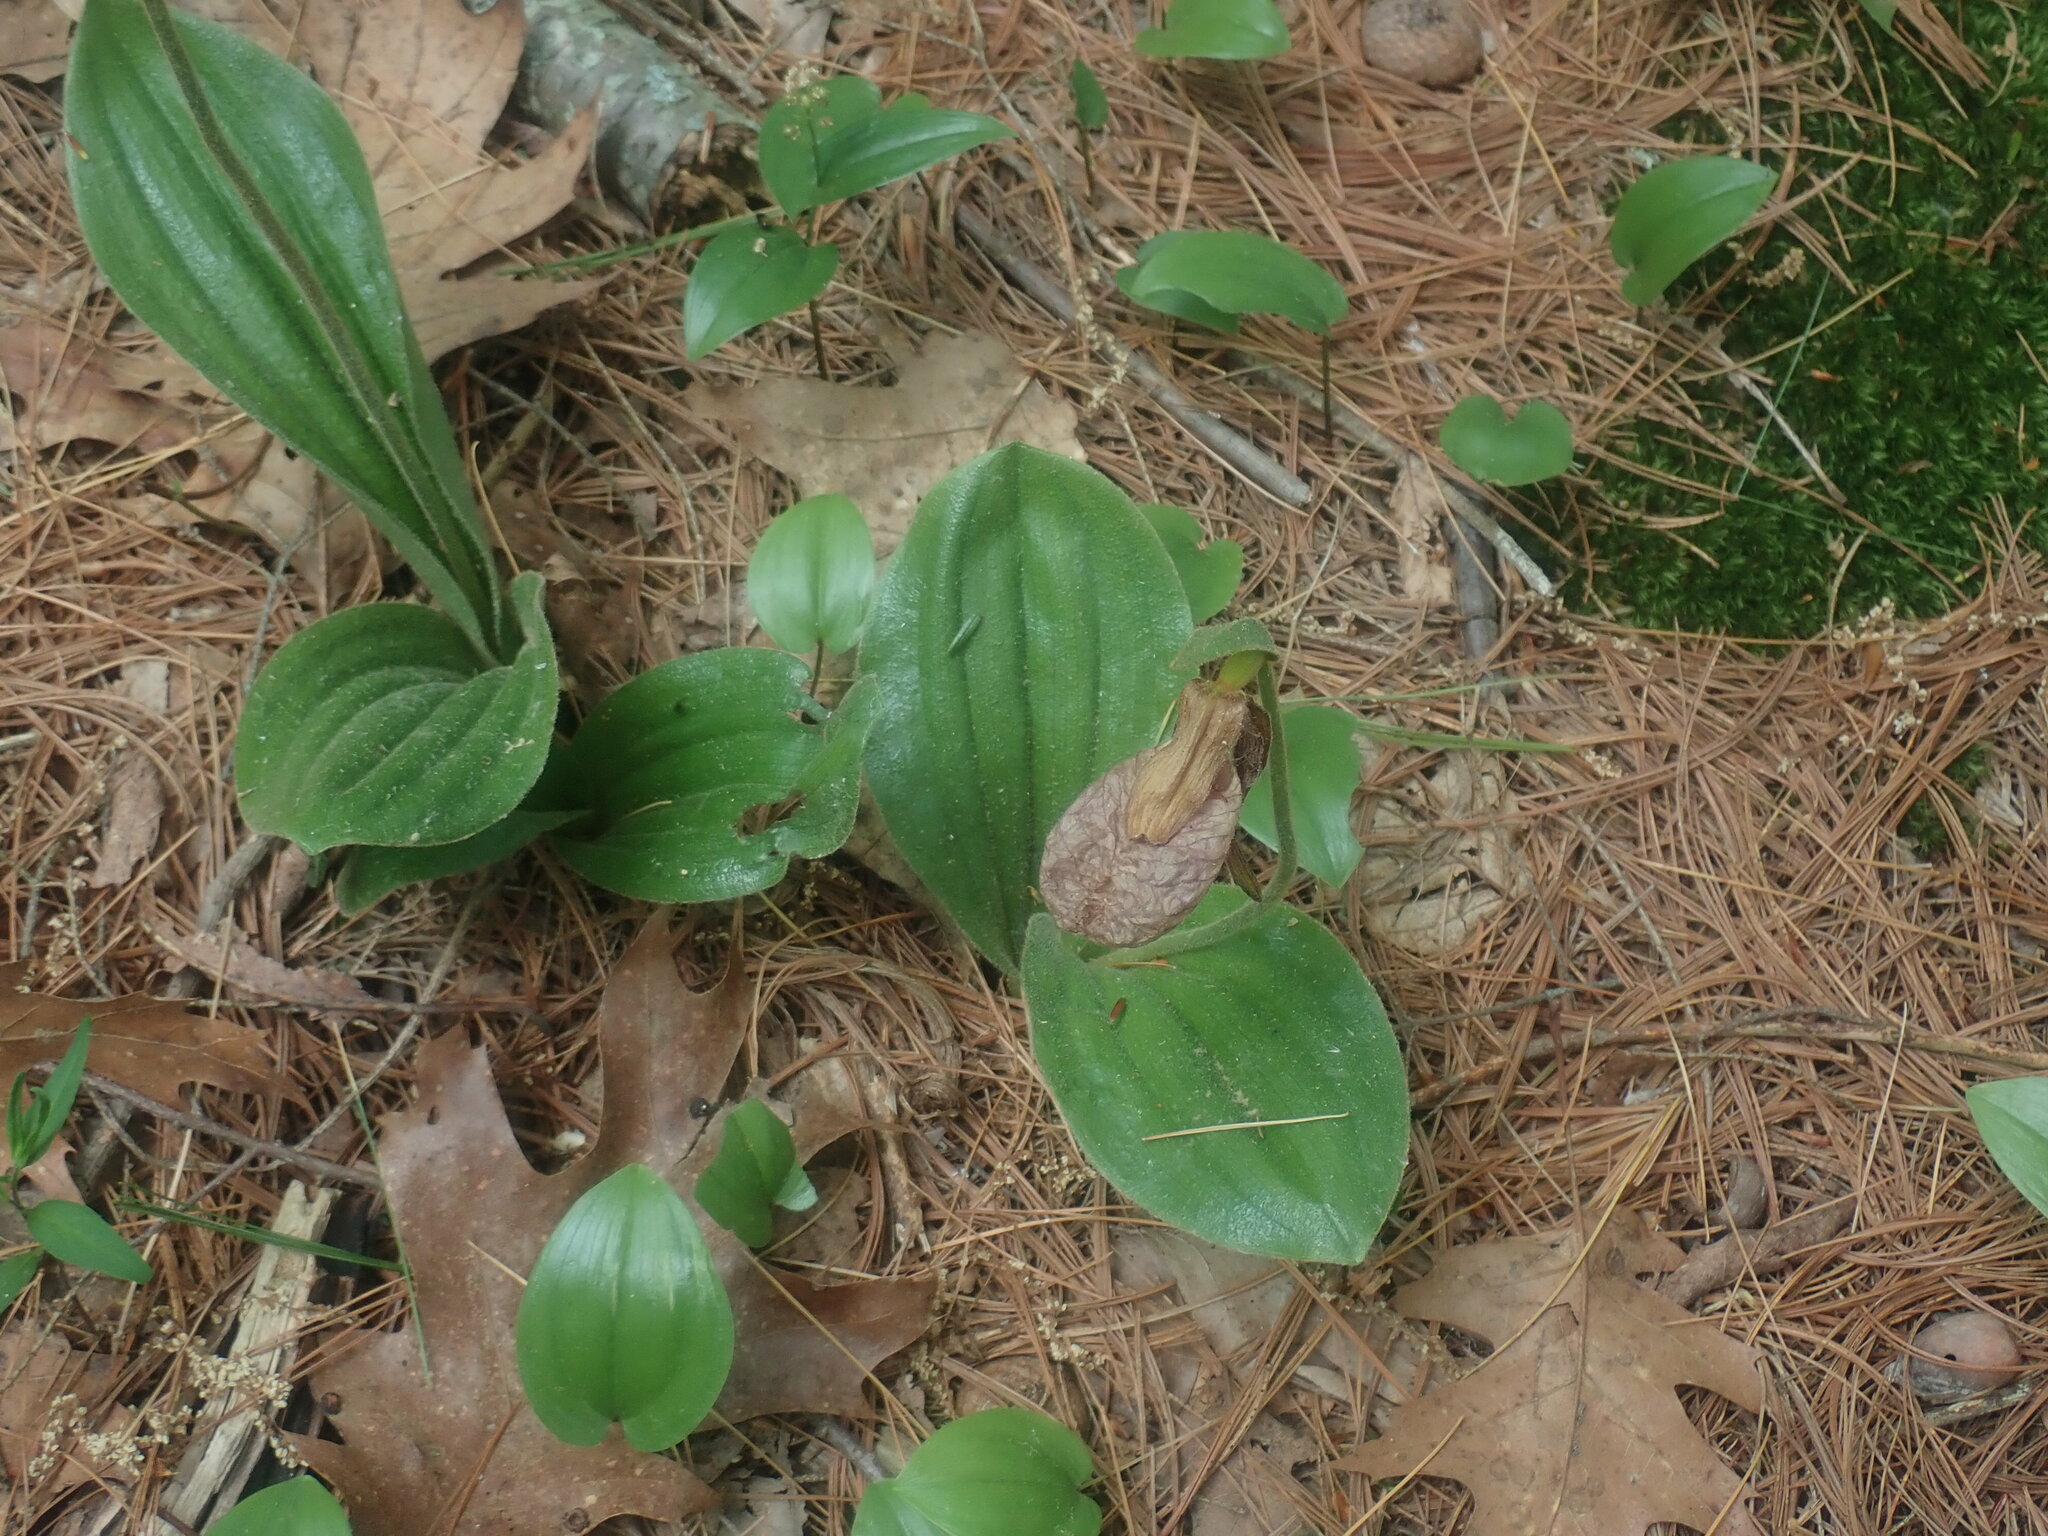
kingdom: Plantae
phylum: Tracheophyta
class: Liliopsida
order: Asparagales
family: Orchidaceae
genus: Cypripedium
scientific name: Cypripedium acaule
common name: Pink lady's-slipper
